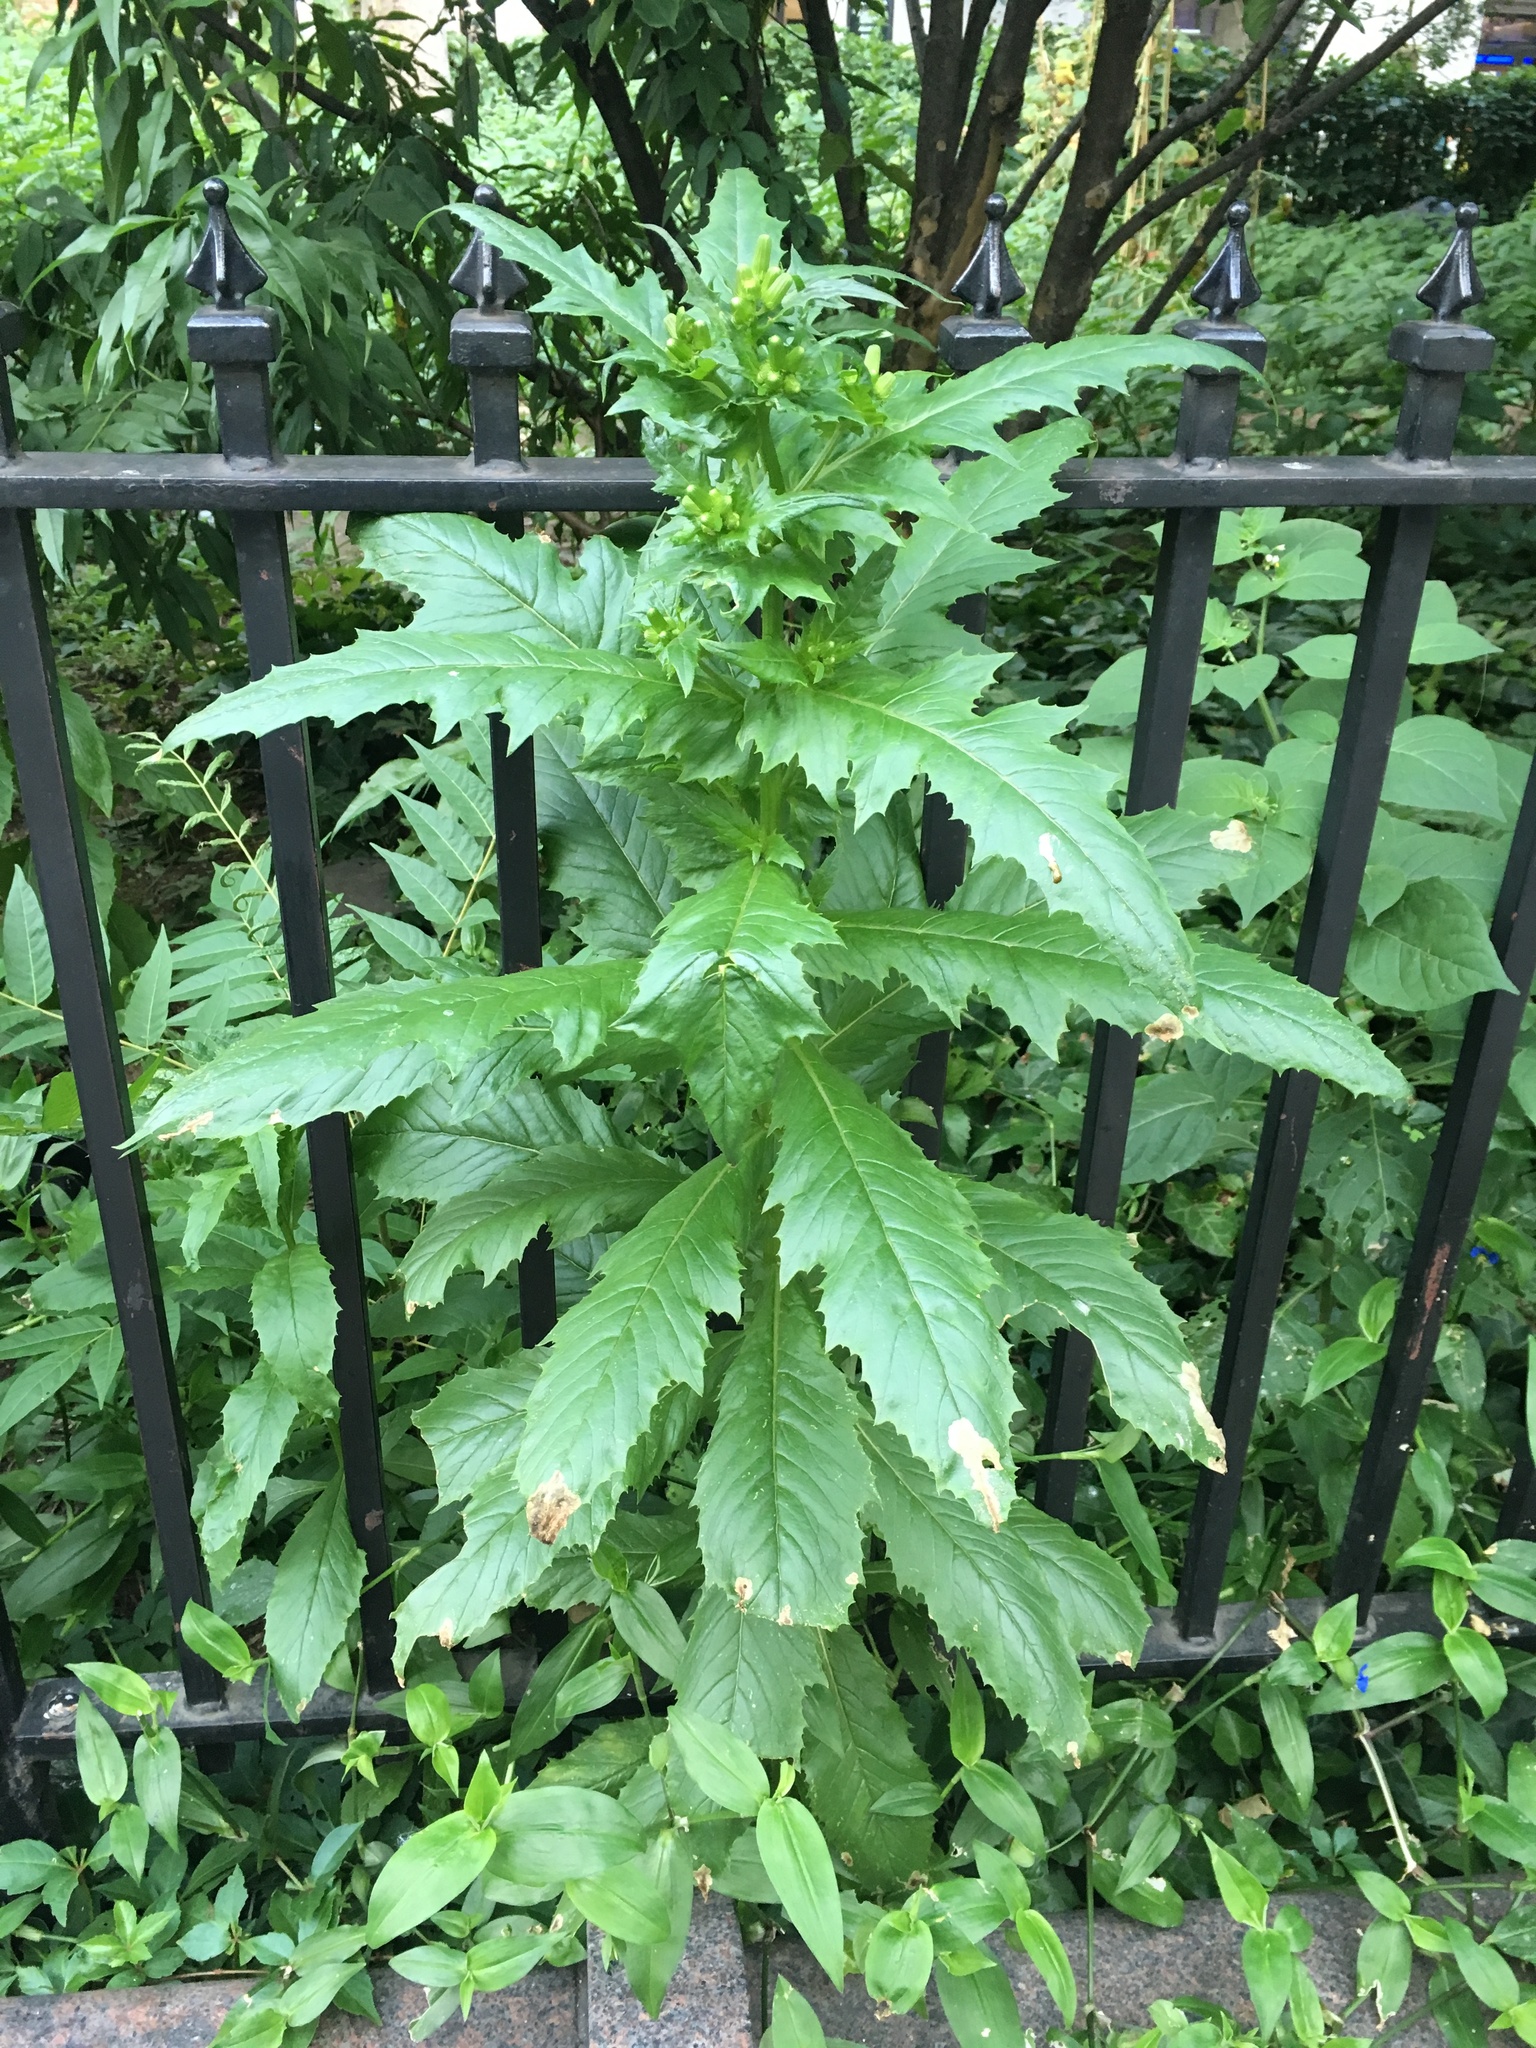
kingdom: Plantae
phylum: Tracheophyta
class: Magnoliopsida
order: Asterales
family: Asteraceae
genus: Erechtites
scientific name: Erechtites hieraciifolius
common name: American burnweed
